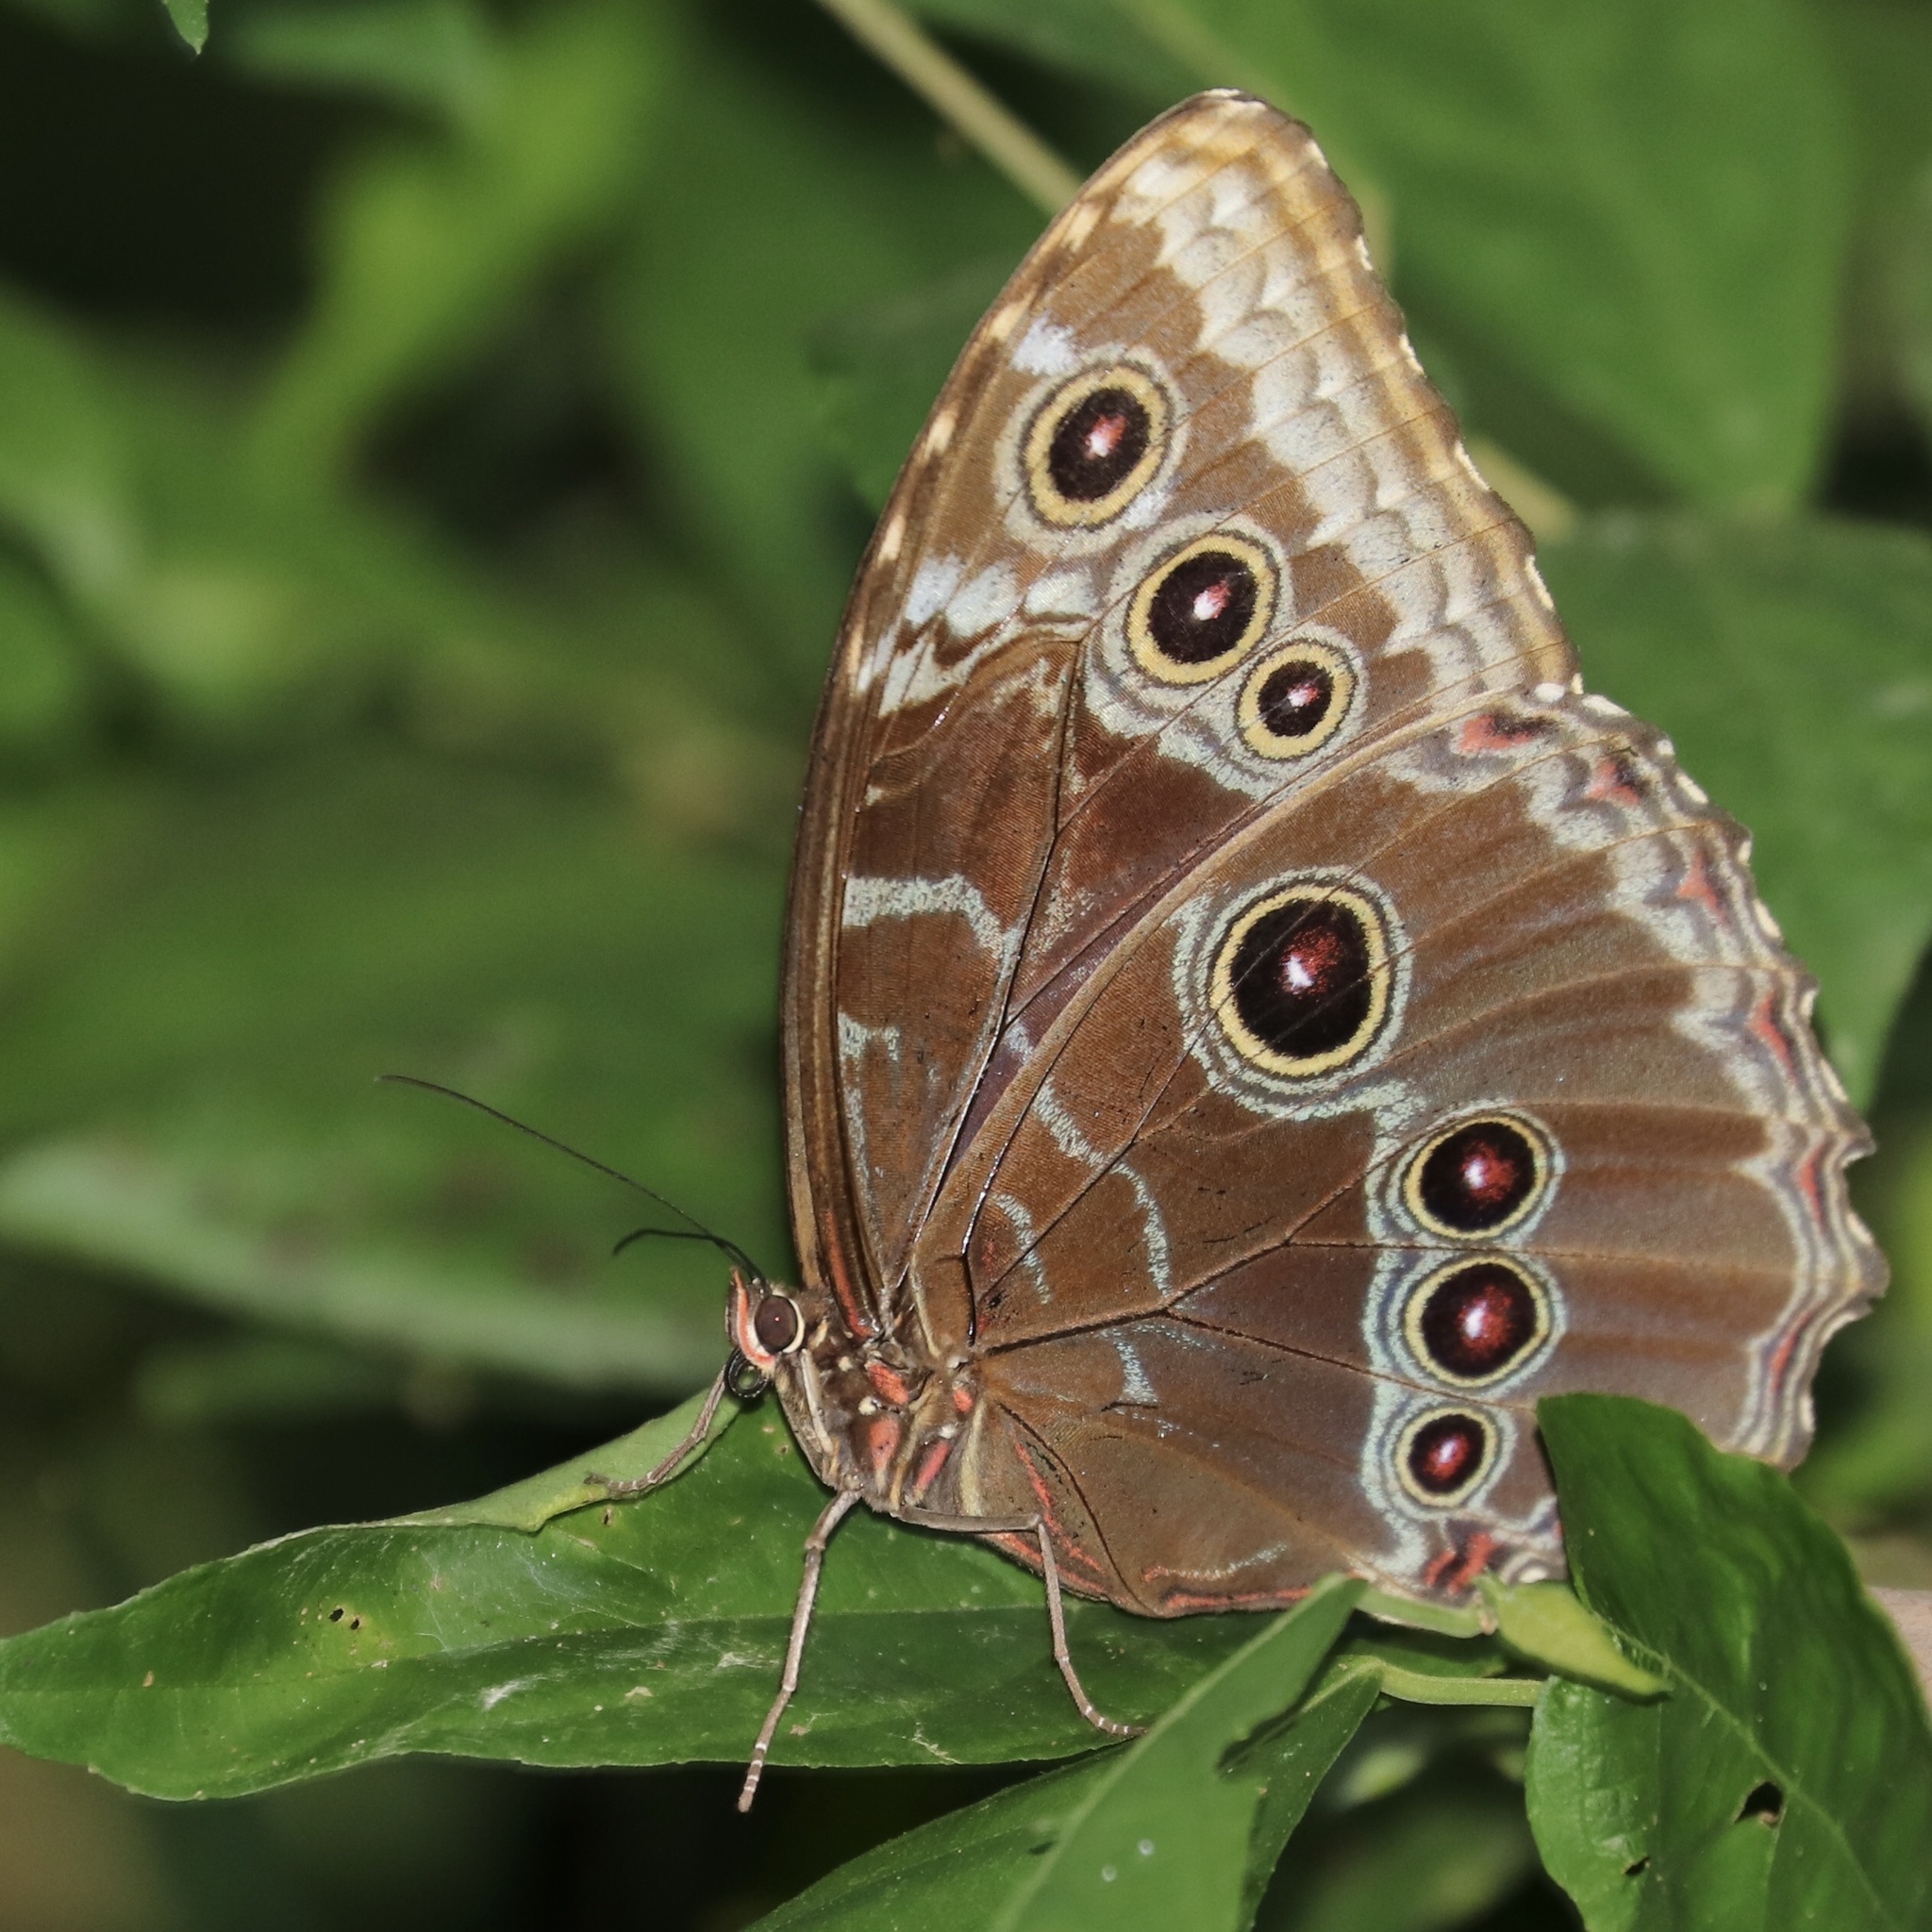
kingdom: Animalia
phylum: Arthropoda
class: Insecta
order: Lepidoptera
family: Nymphalidae
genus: Morpho
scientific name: Morpho helenor
